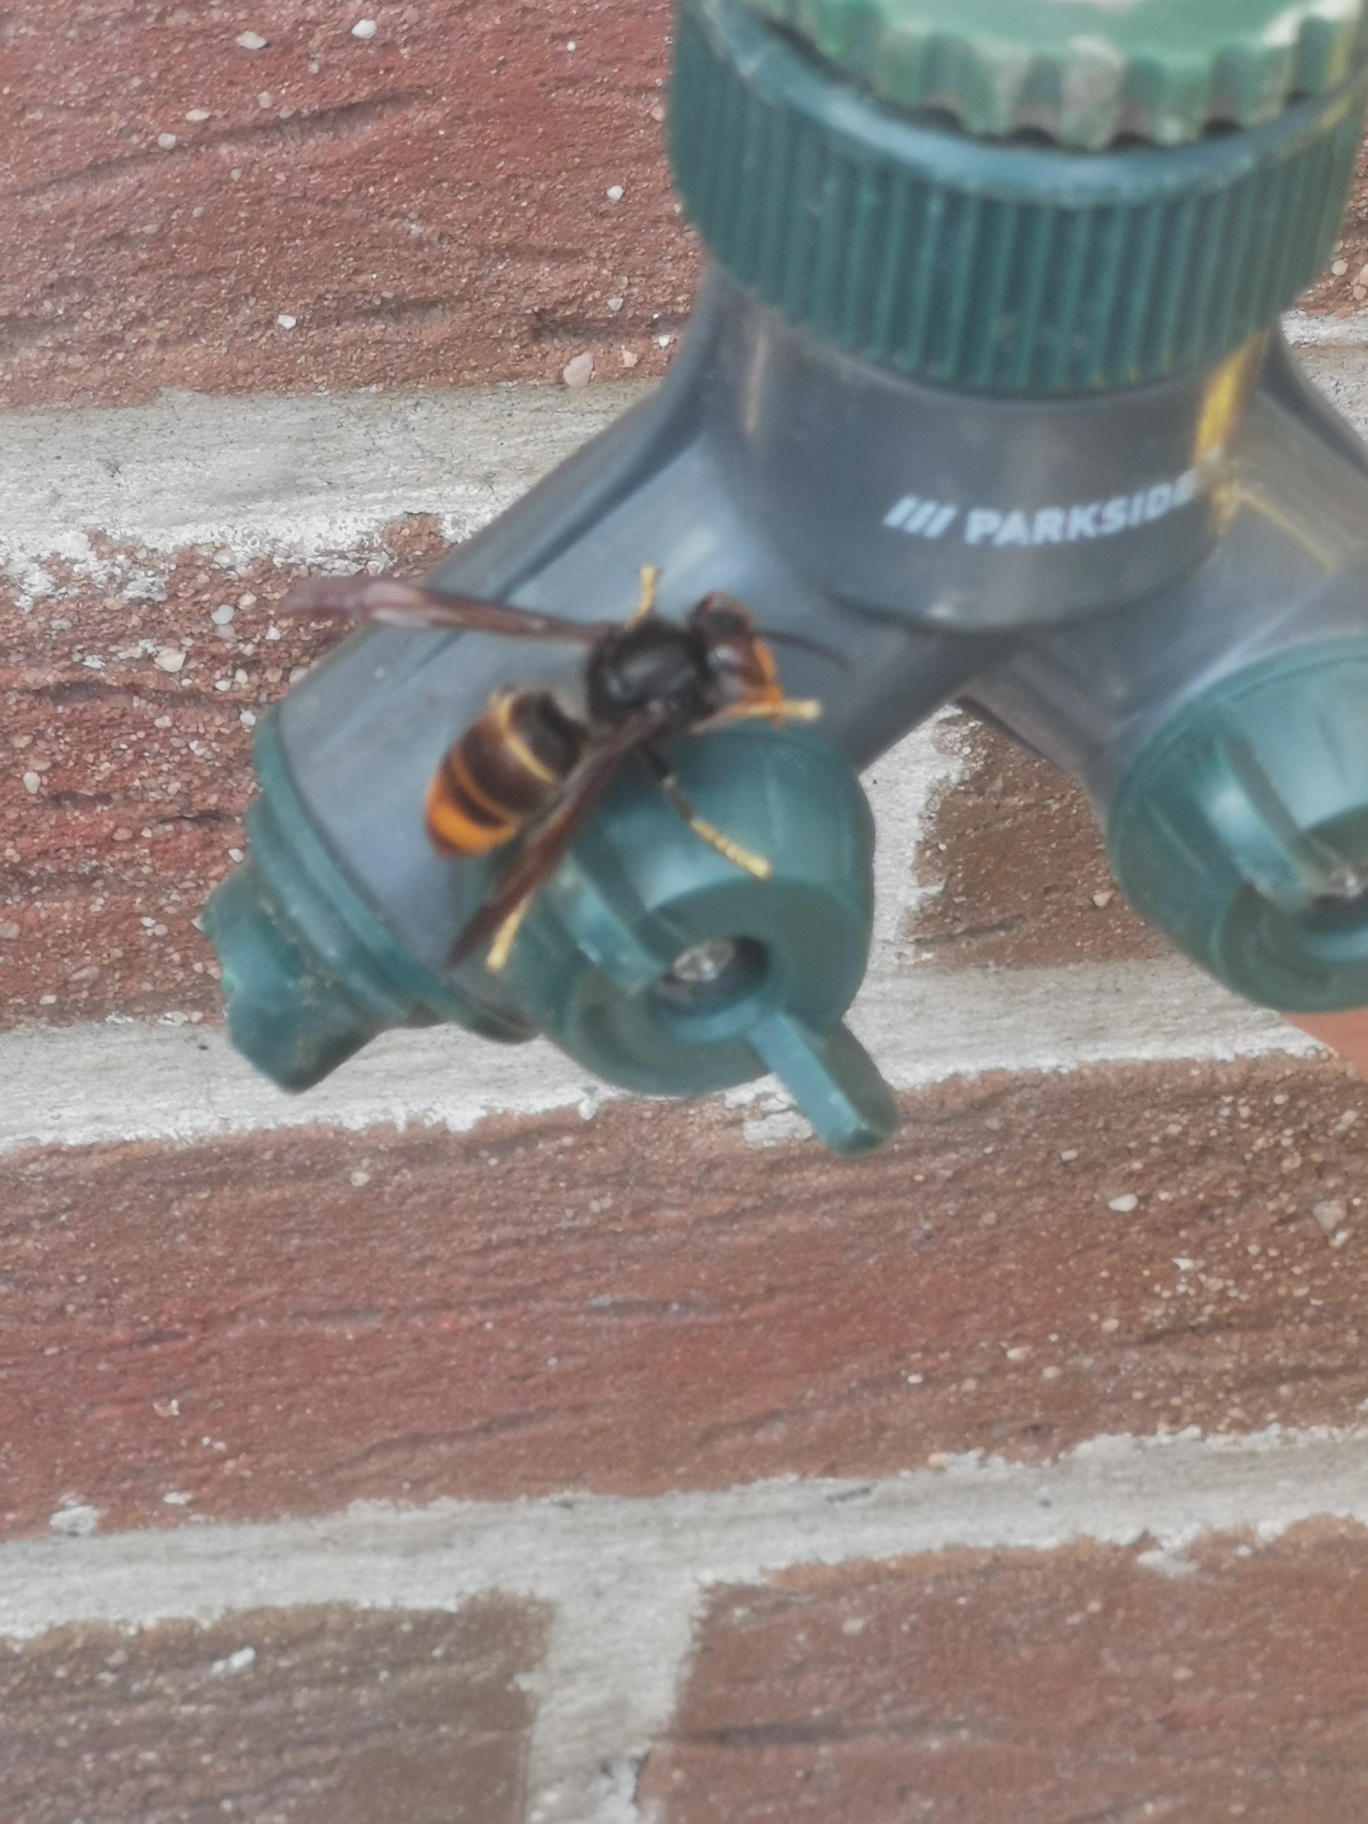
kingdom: Animalia
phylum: Arthropoda
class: Insecta
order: Hymenoptera
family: Vespidae
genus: Vespa
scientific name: Vespa velutina
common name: Asian hornet
